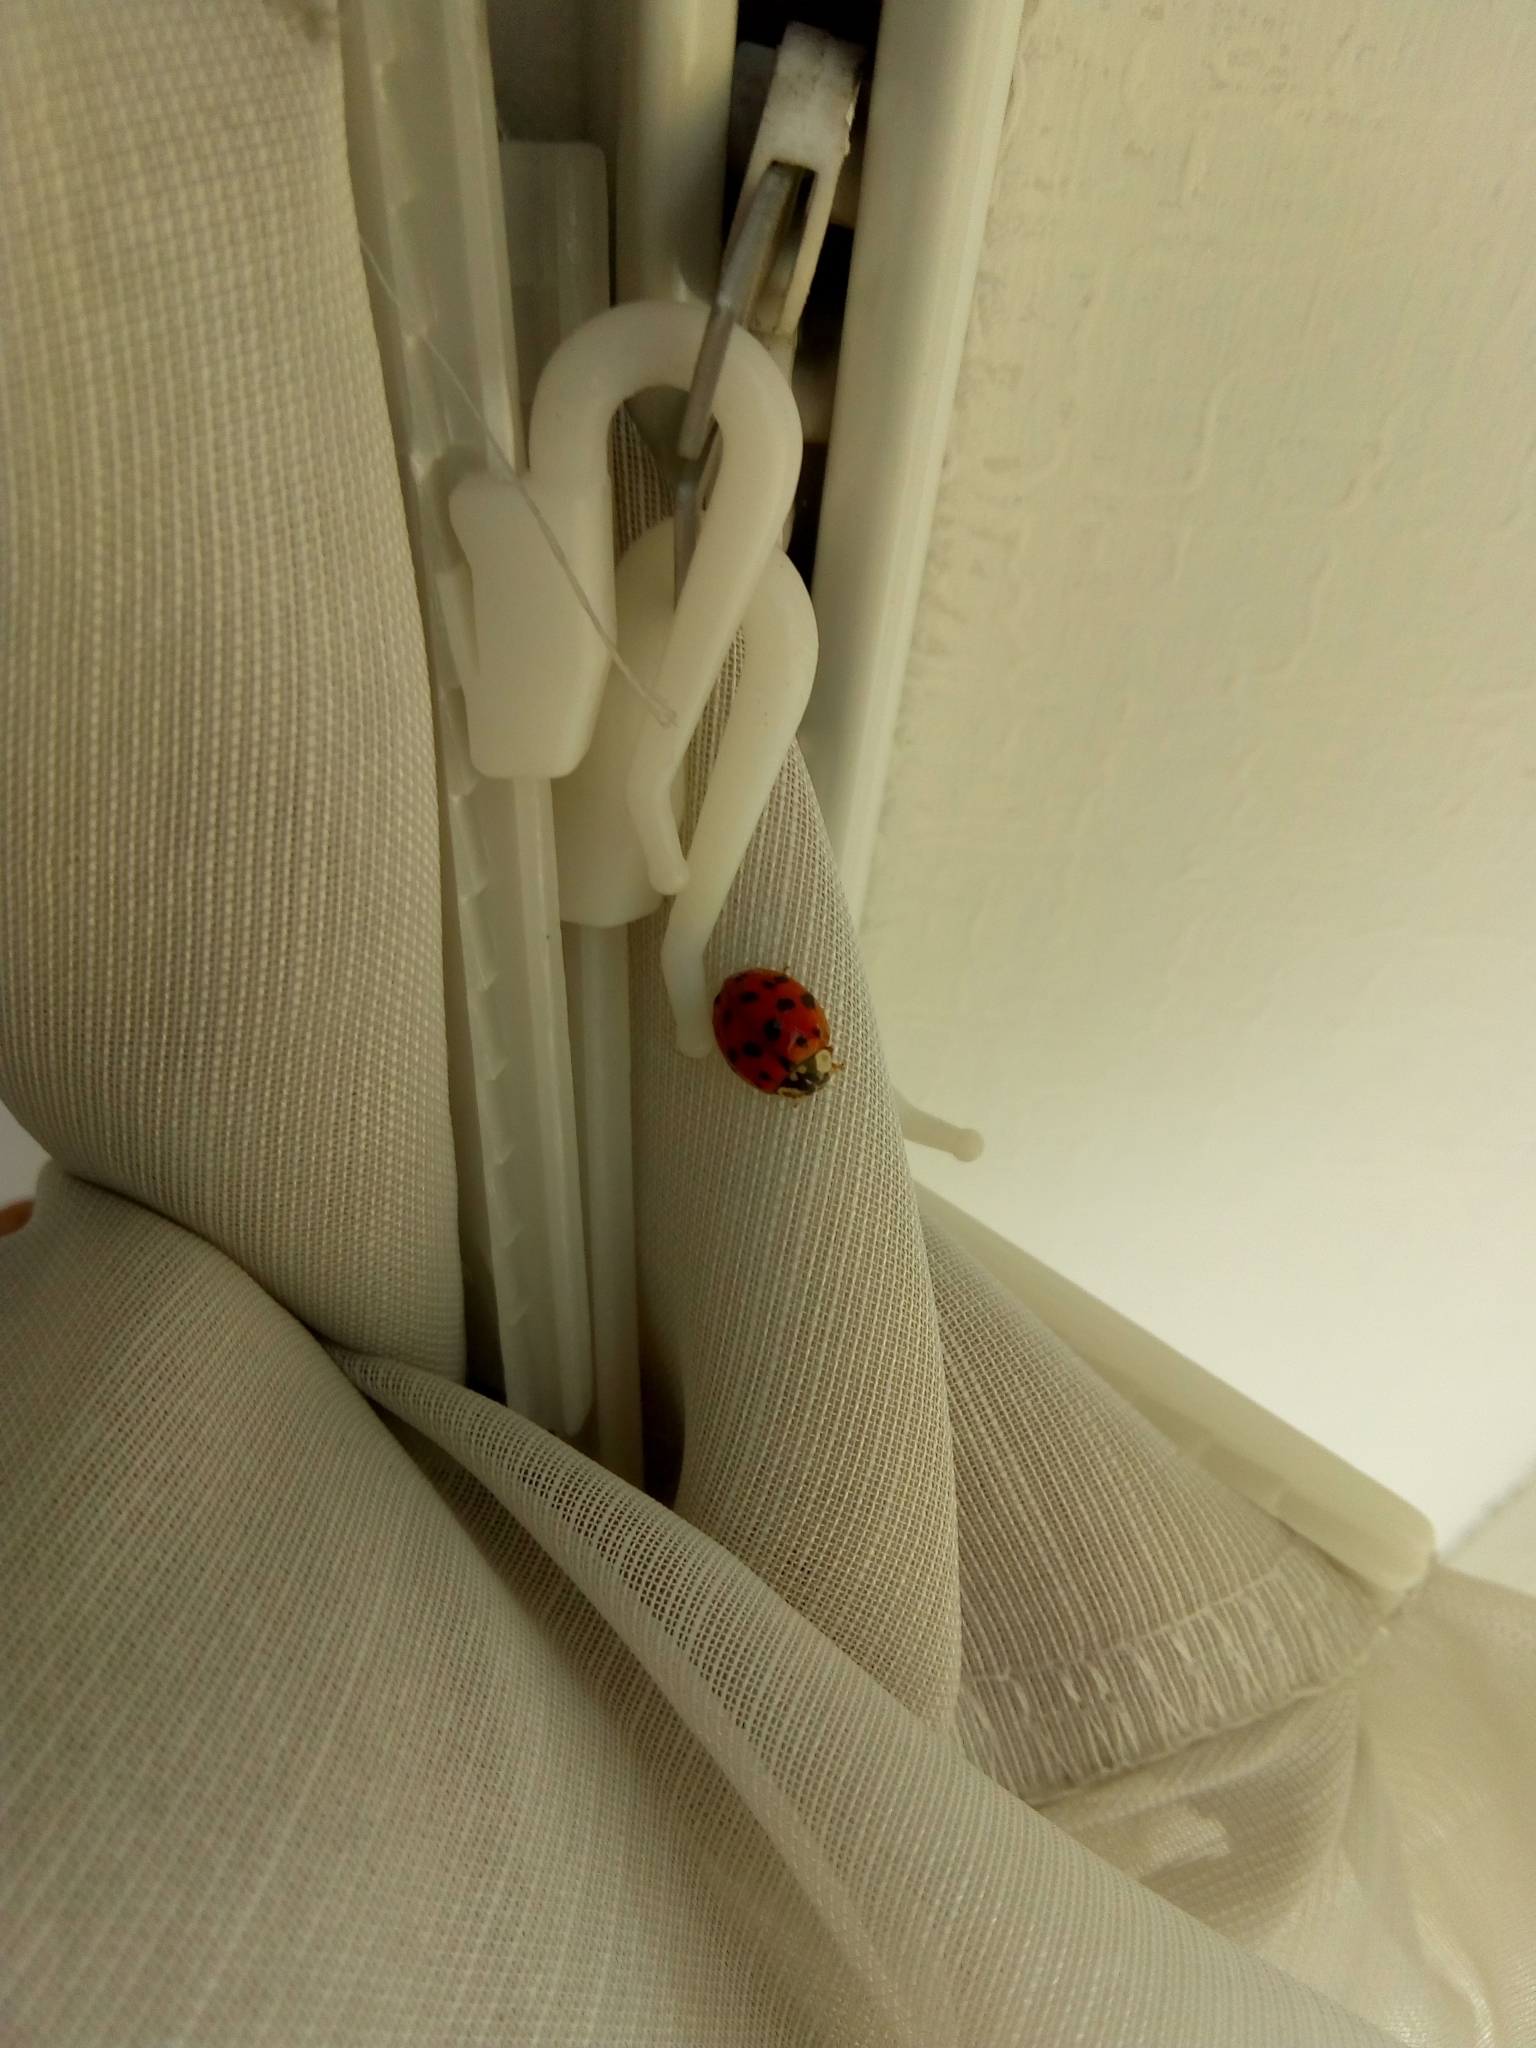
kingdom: Animalia
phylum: Arthropoda
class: Insecta
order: Coleoptera
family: Coccinellidae
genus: Harmonia
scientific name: Harmonia axyridis
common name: Harlequin ladybird
